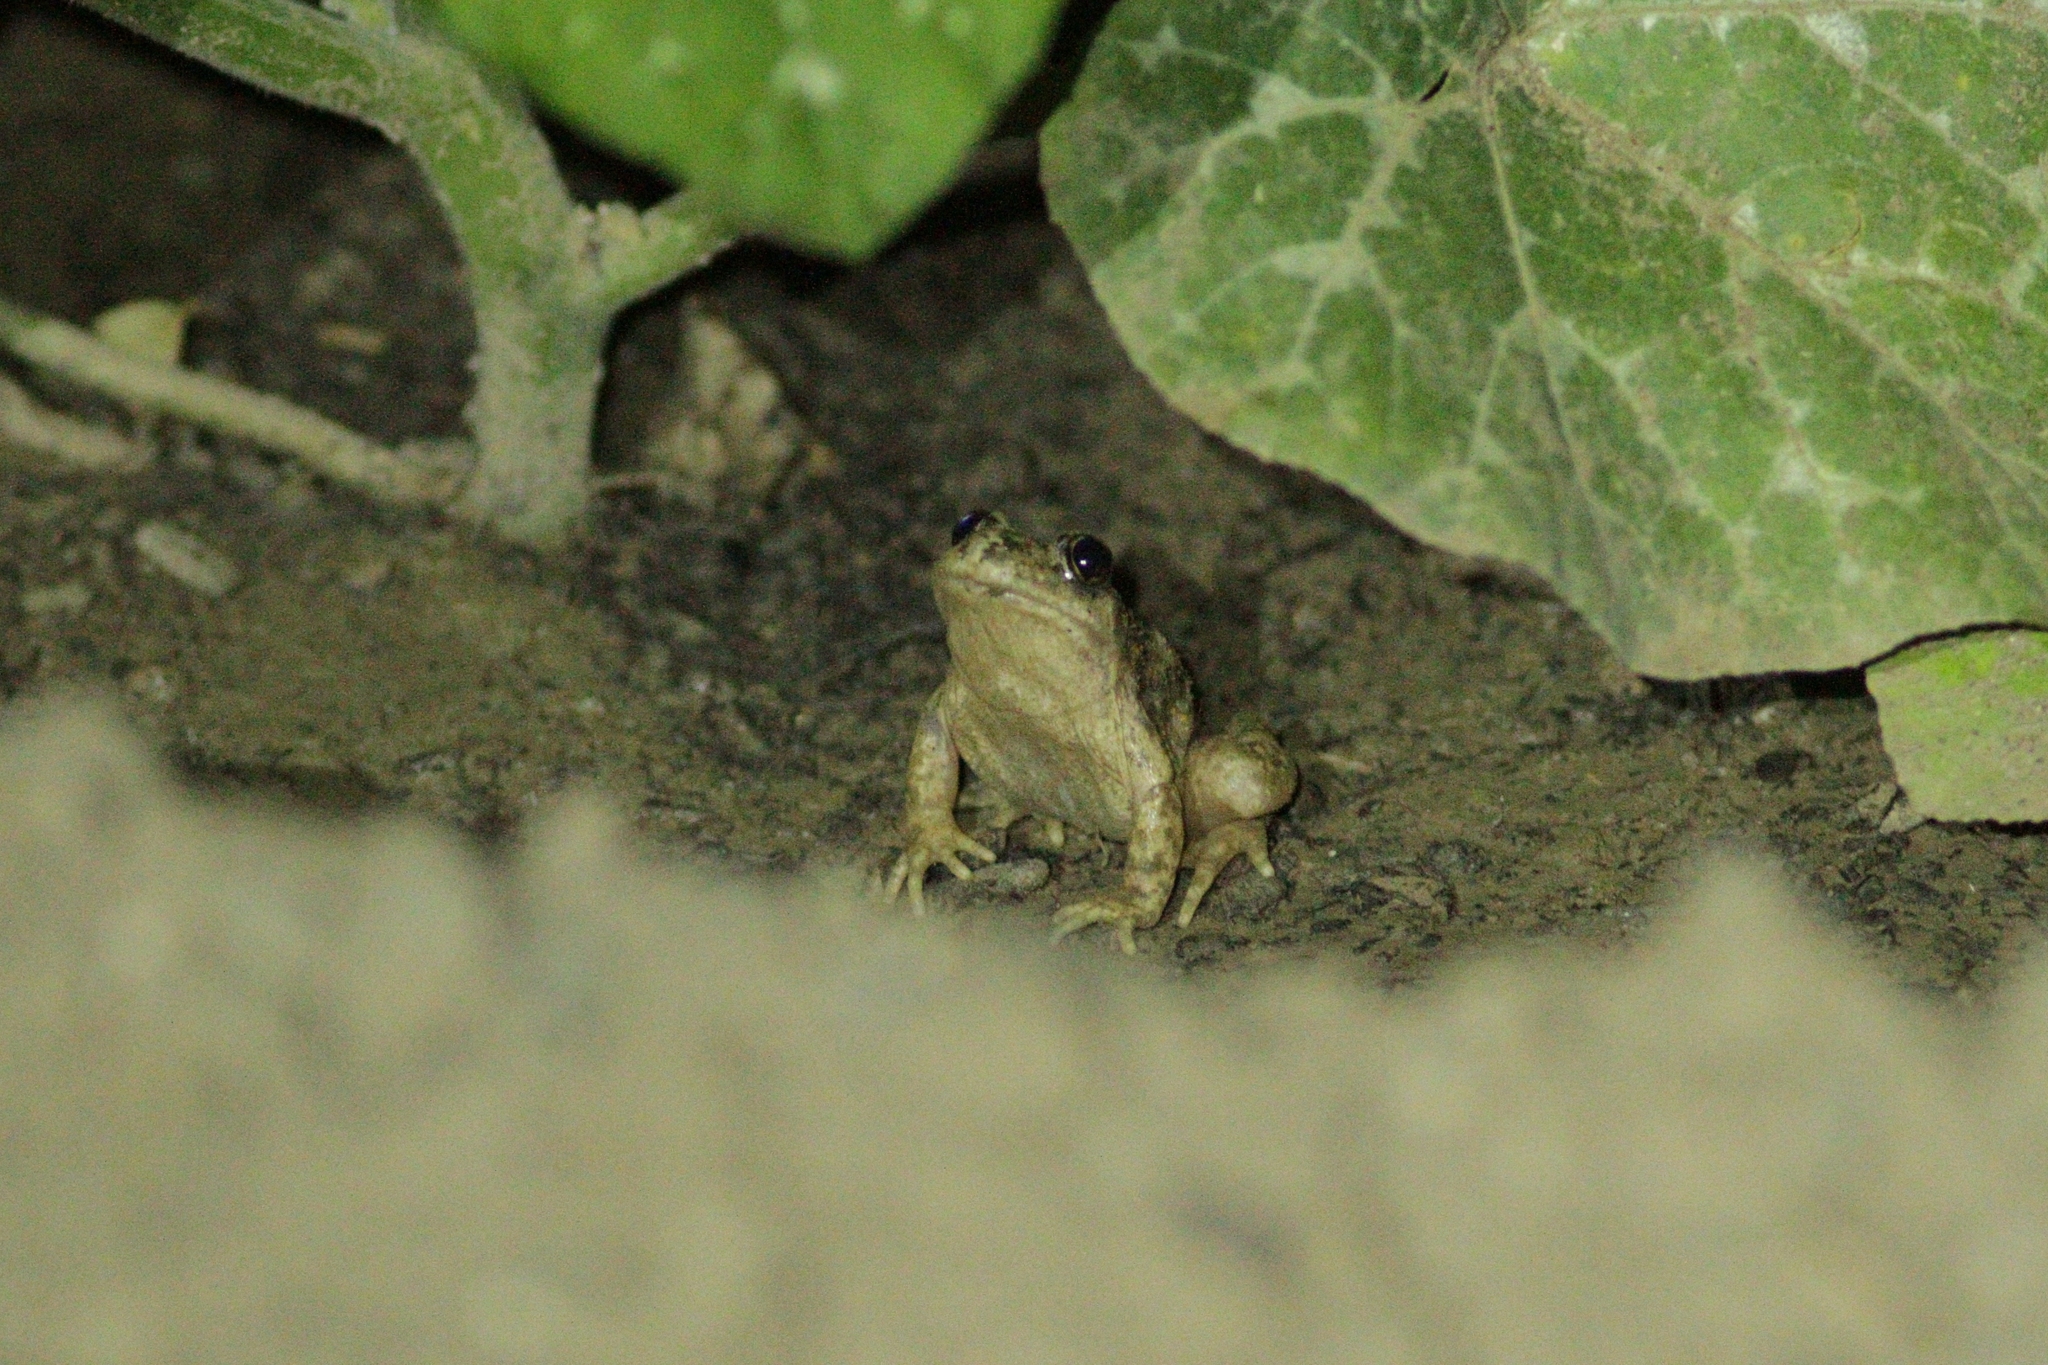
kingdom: Animalia
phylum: Chordata
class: Amphibia
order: Anura
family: Alytidae
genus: Alytes
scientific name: Alytes obstetricans
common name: Midwife toad
